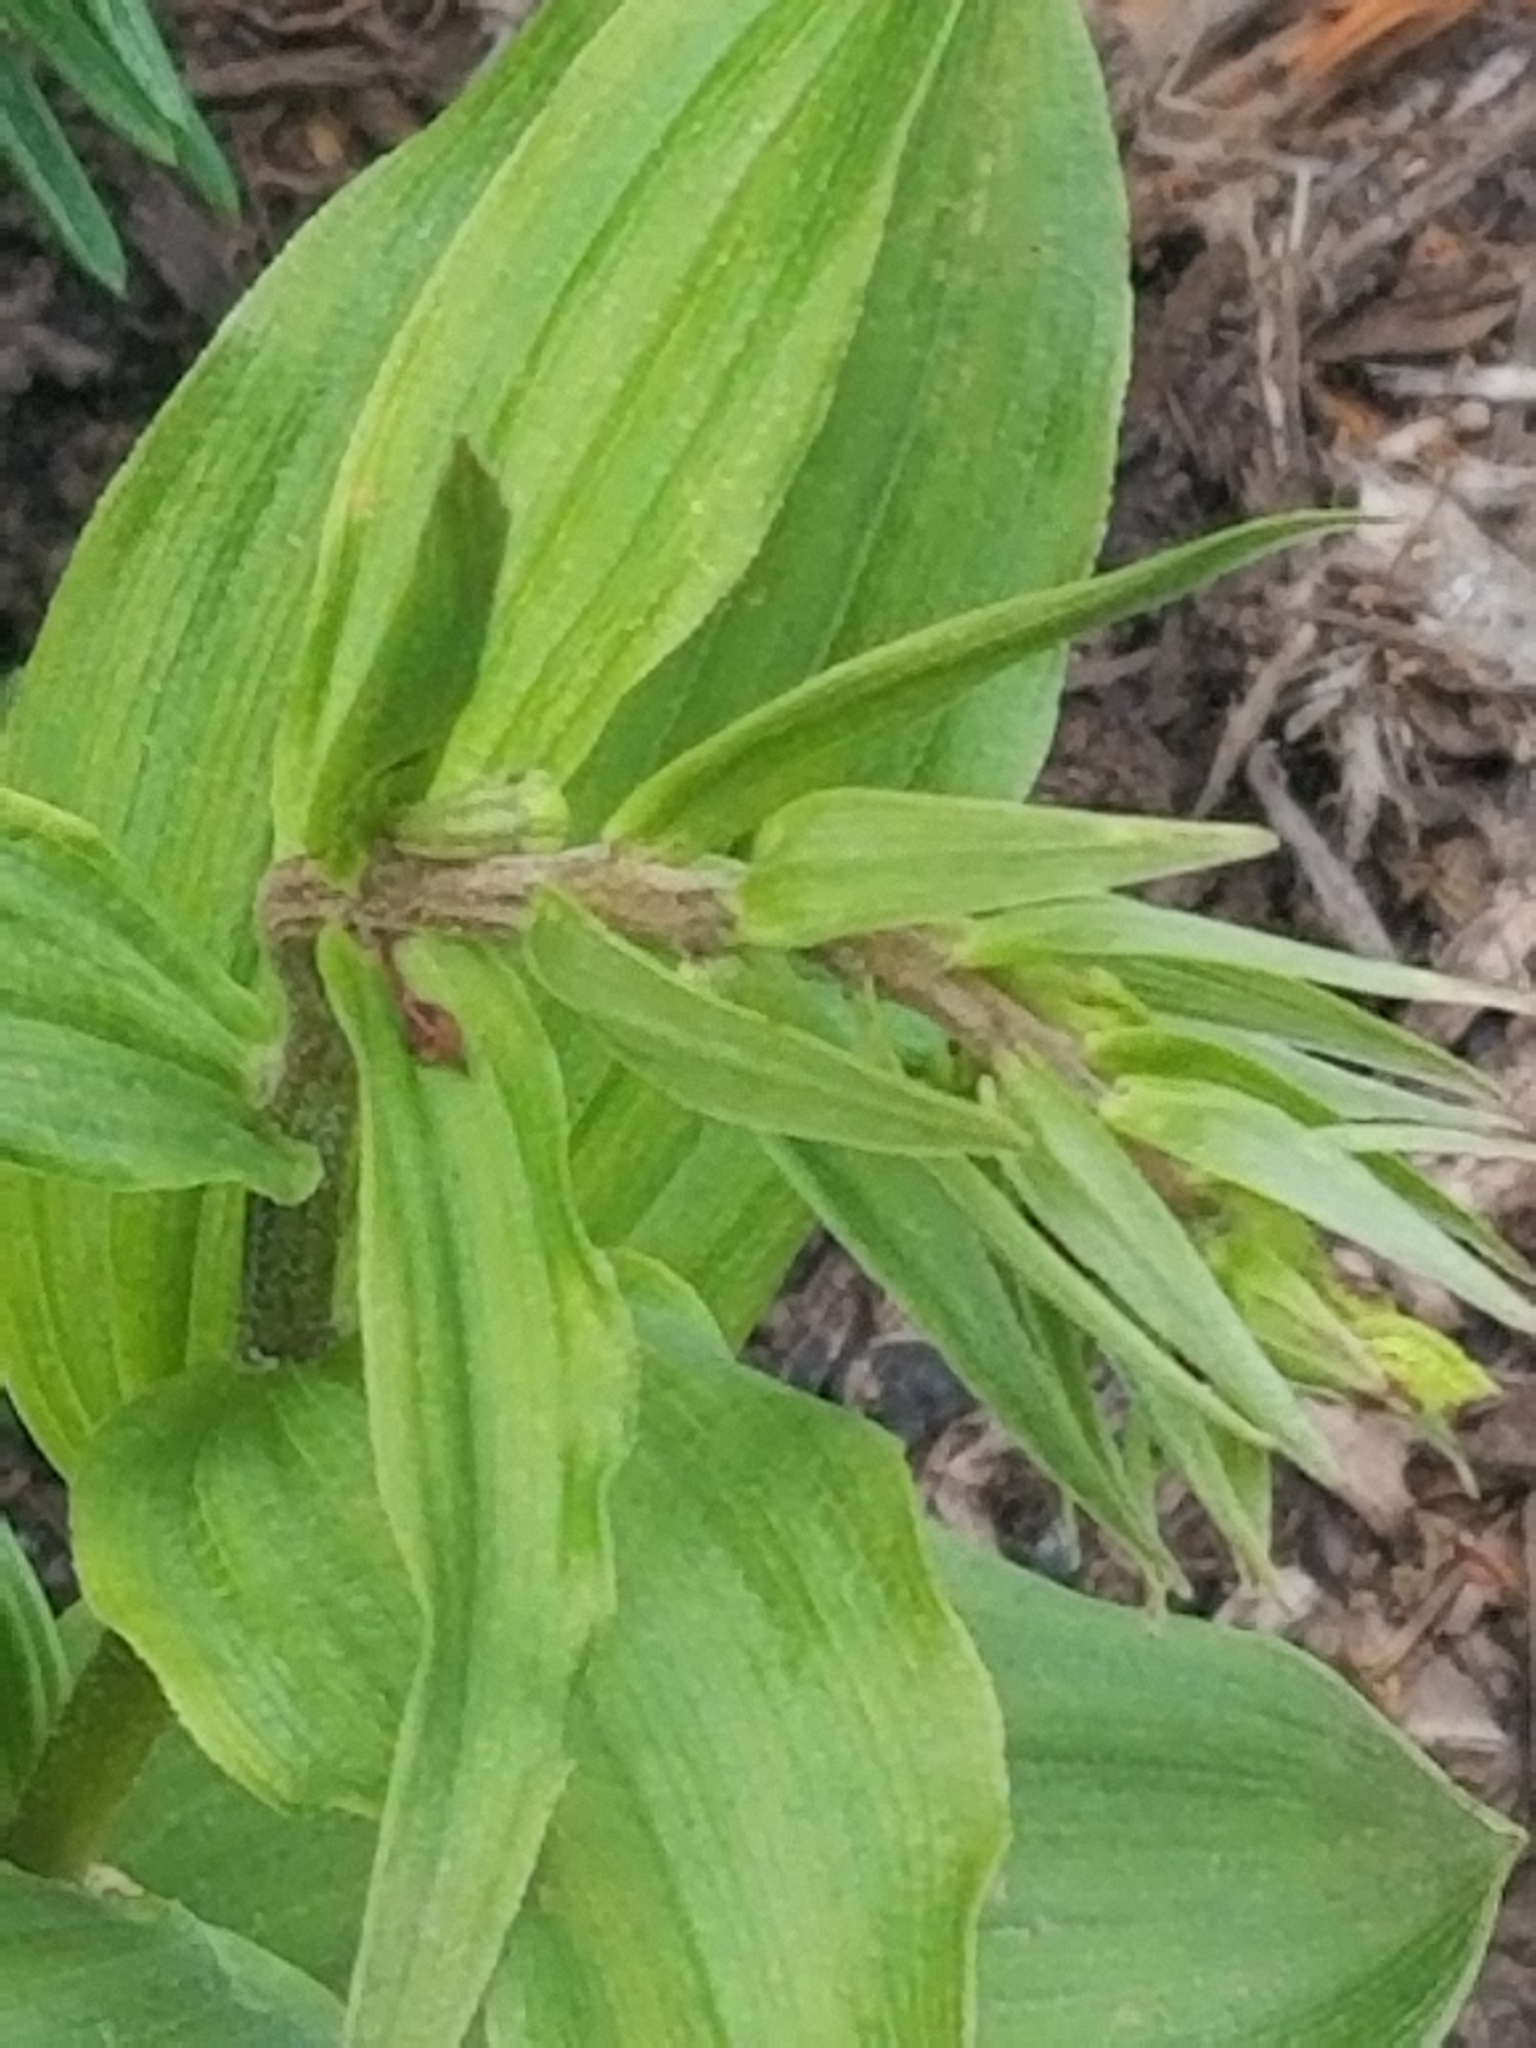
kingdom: Plantae
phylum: Tracheophyta
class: Liliopsida
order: Asparagales
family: Orchidaceae
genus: Epipactis
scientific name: Epipactis helleborine
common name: Broad-leaved helleborine
